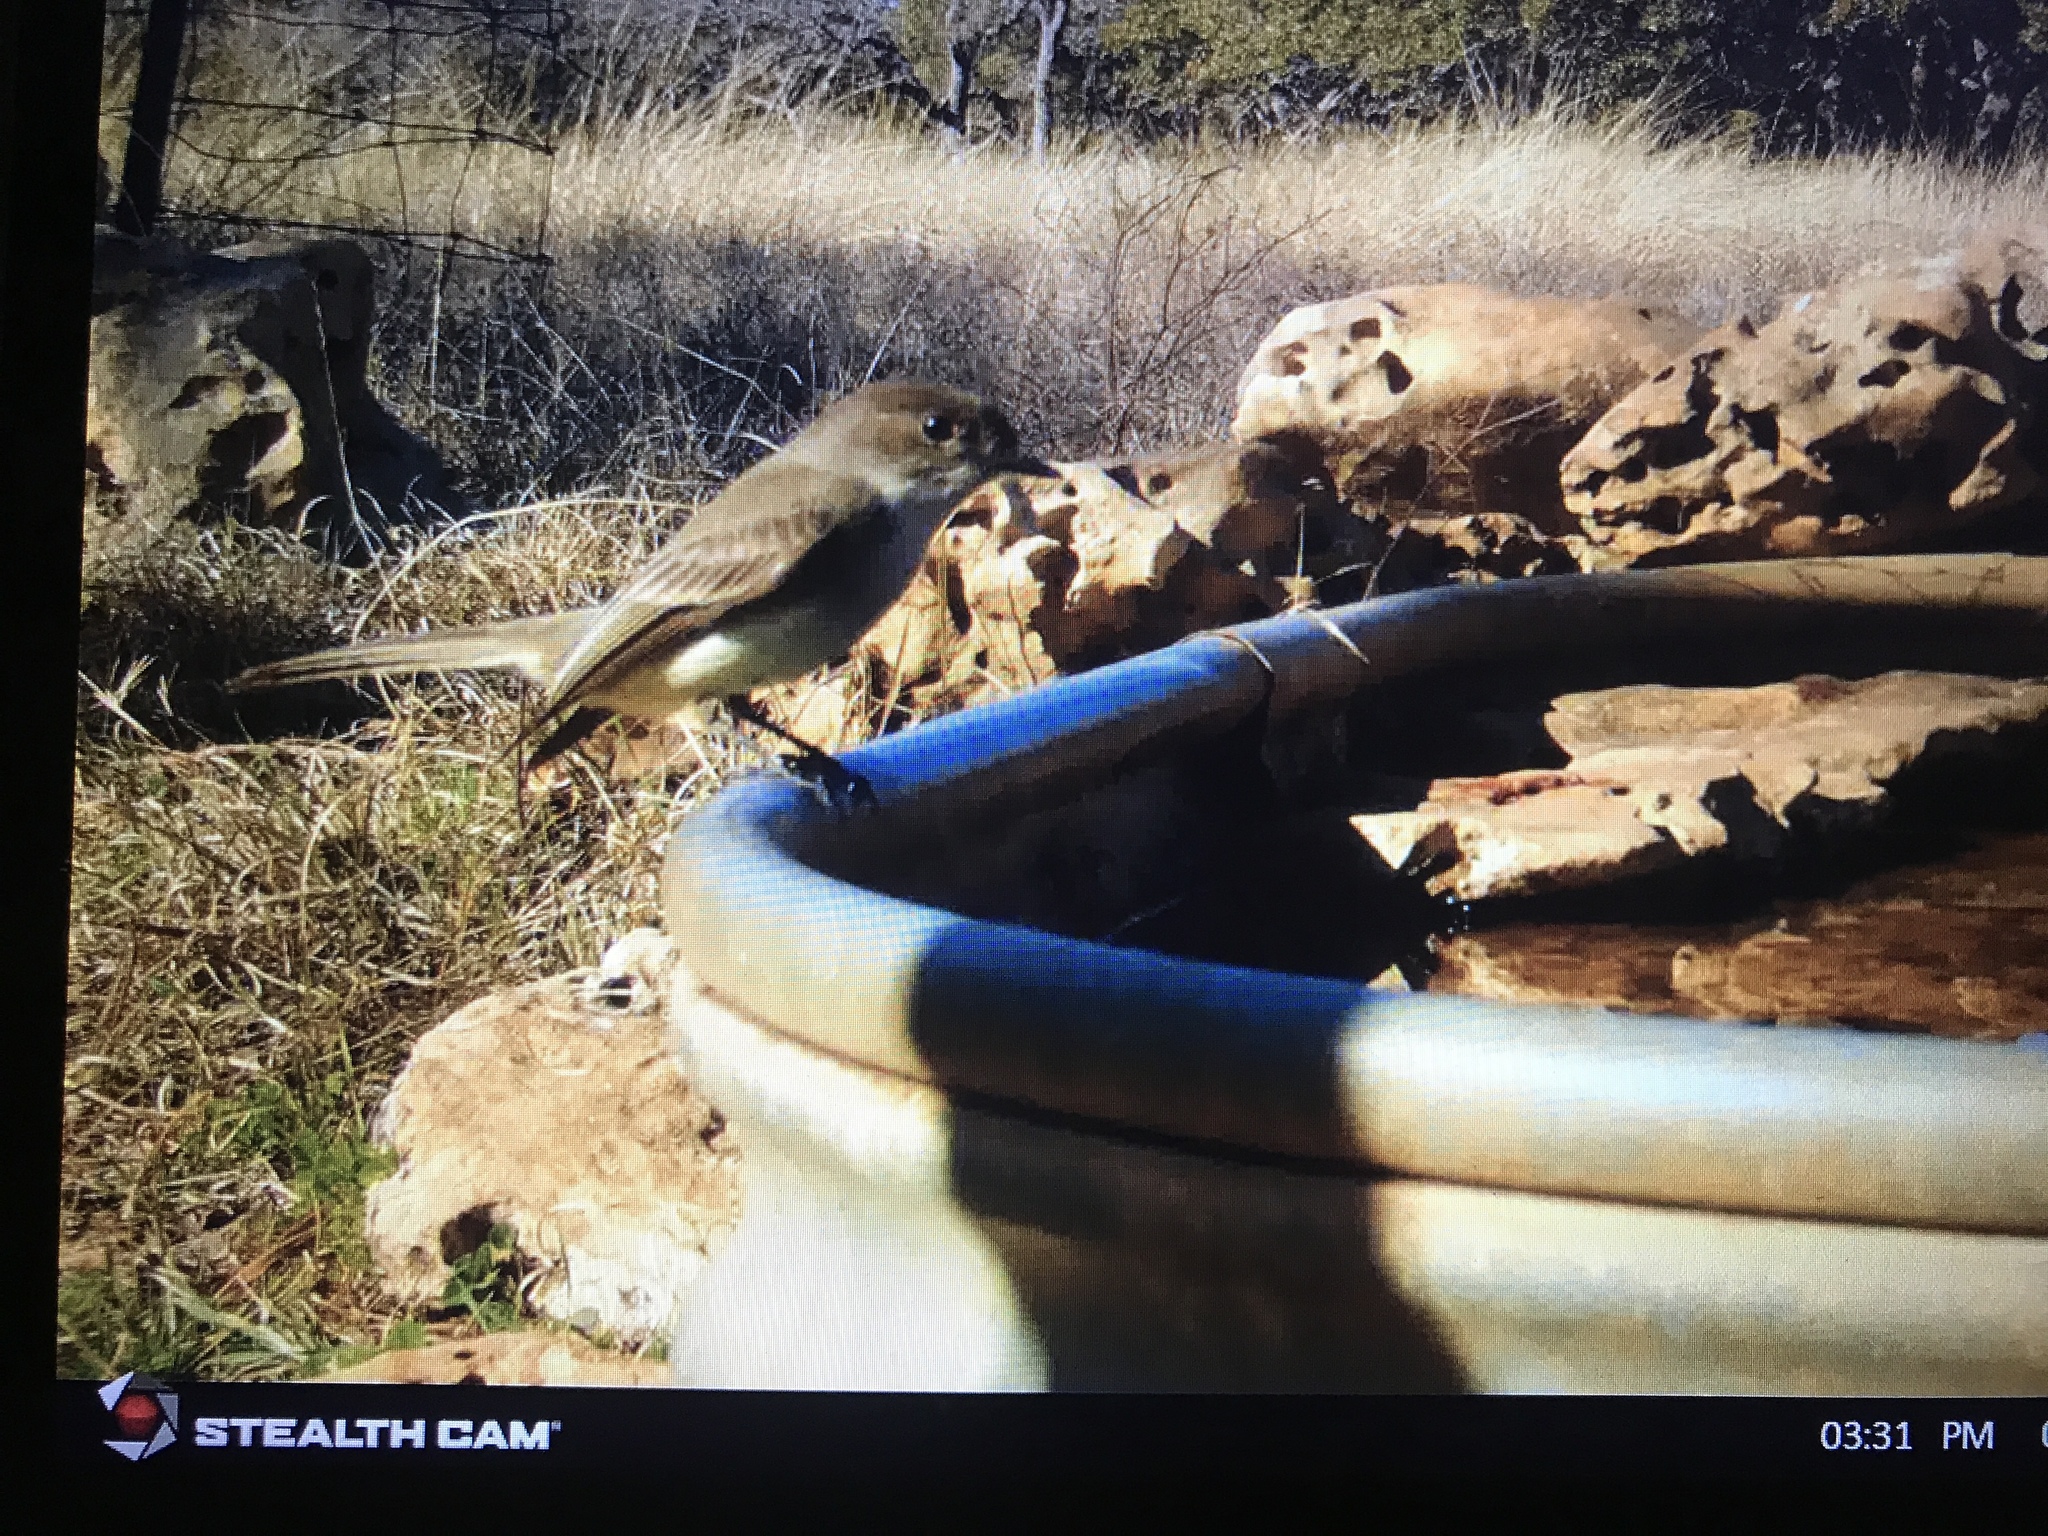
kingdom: Animalia
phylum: Chordata
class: Aves
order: Passeriformes
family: Tyrannidae
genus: Sayornis
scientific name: Sayornis phoebe
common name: Eastern phoebe
